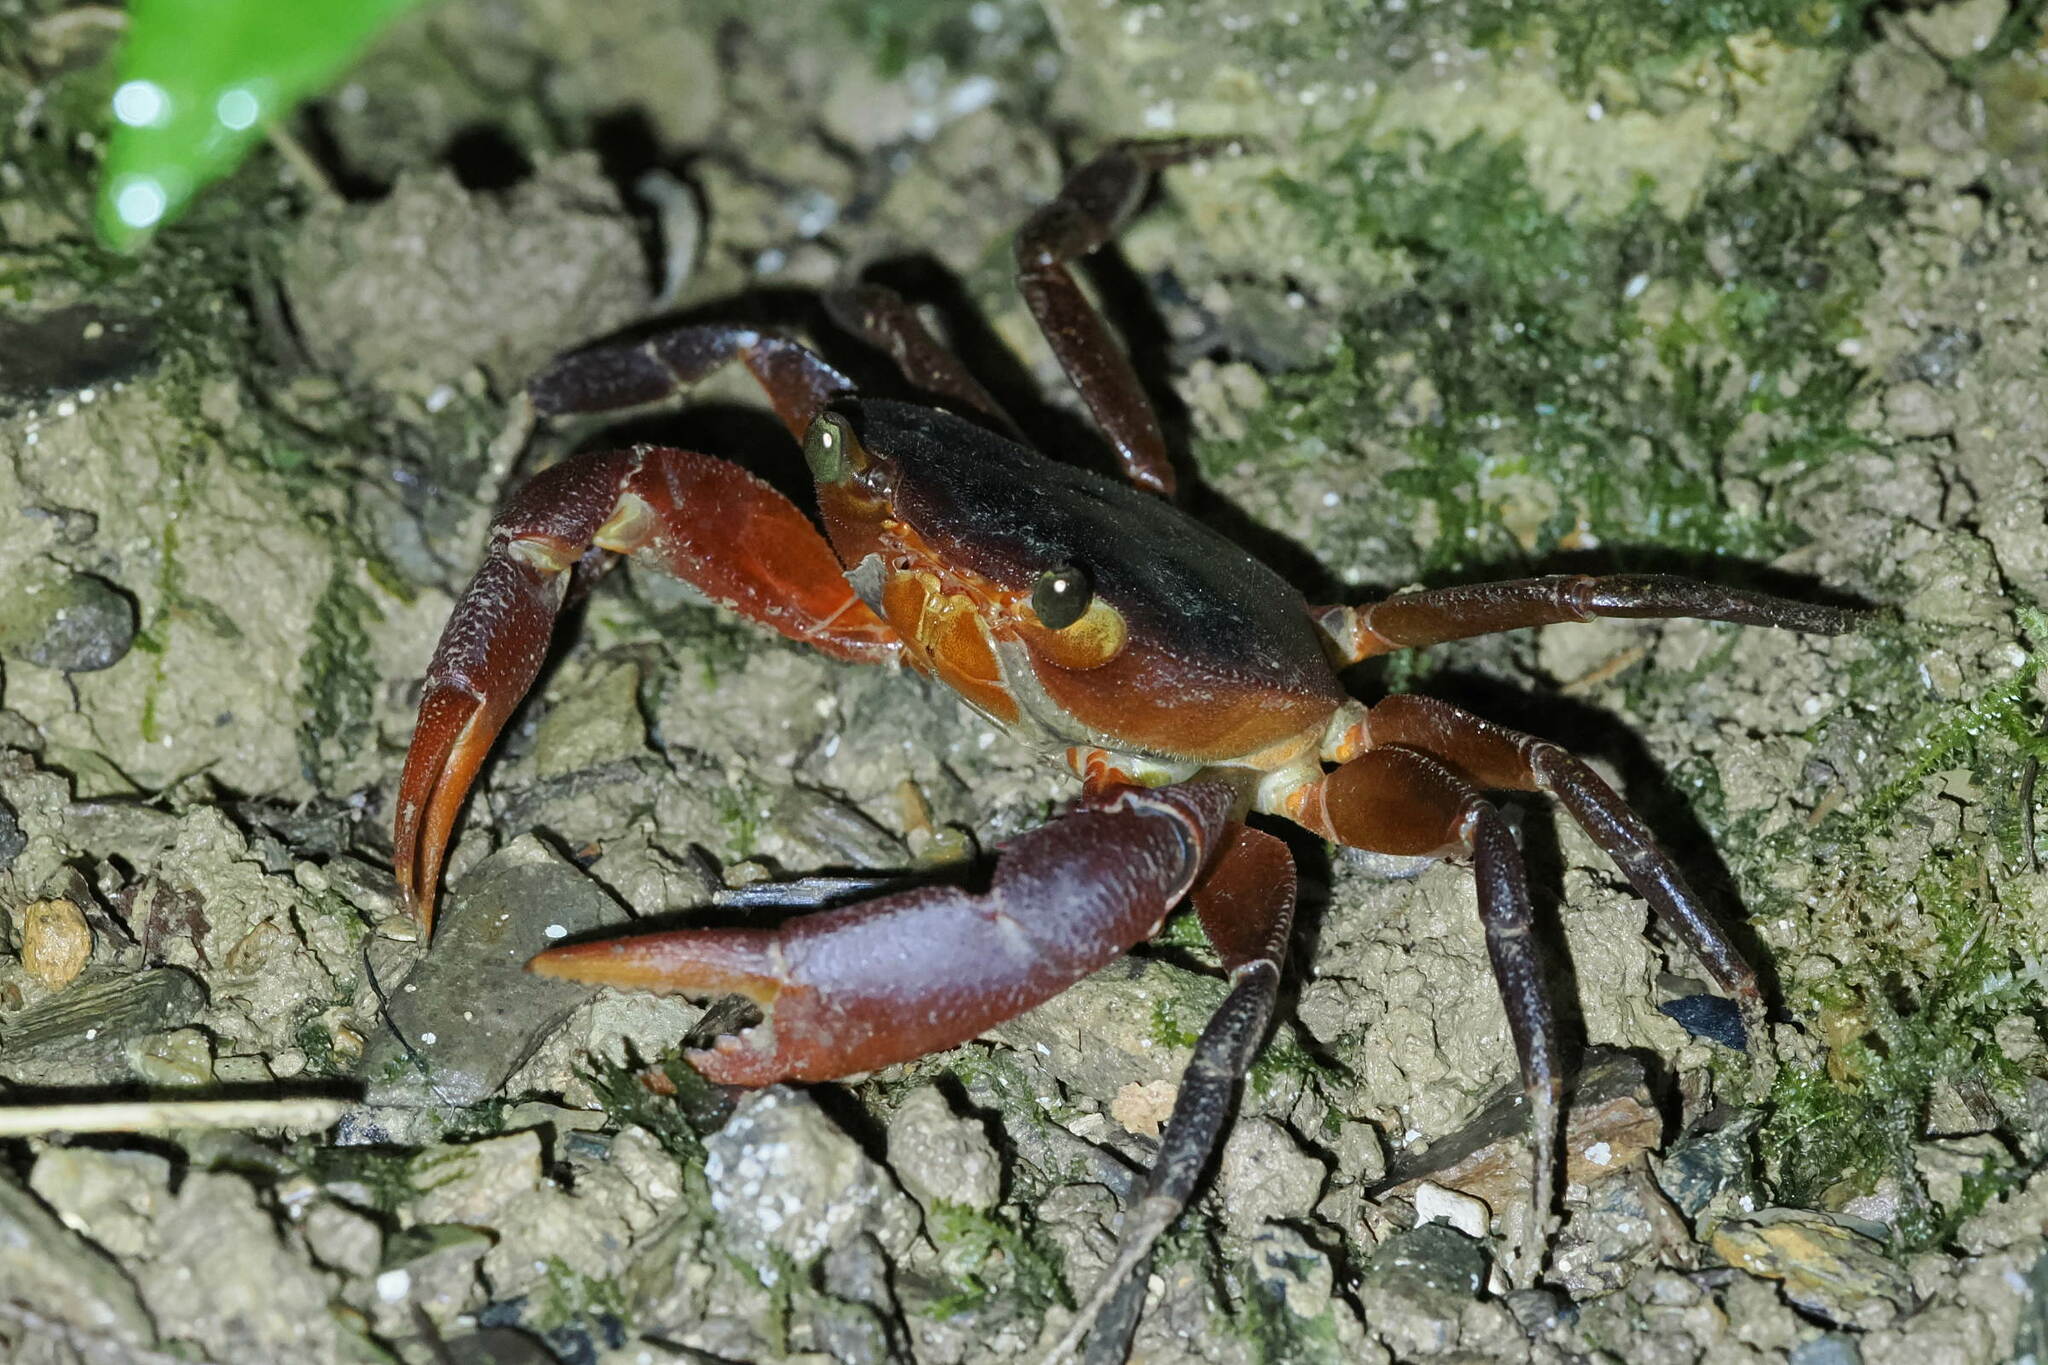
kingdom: Animalia
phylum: Arthropoda
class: Malacostraca
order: Decapoda
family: Pseudothelphusidae
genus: Rodriguezus
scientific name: Rodriguezus garmani
